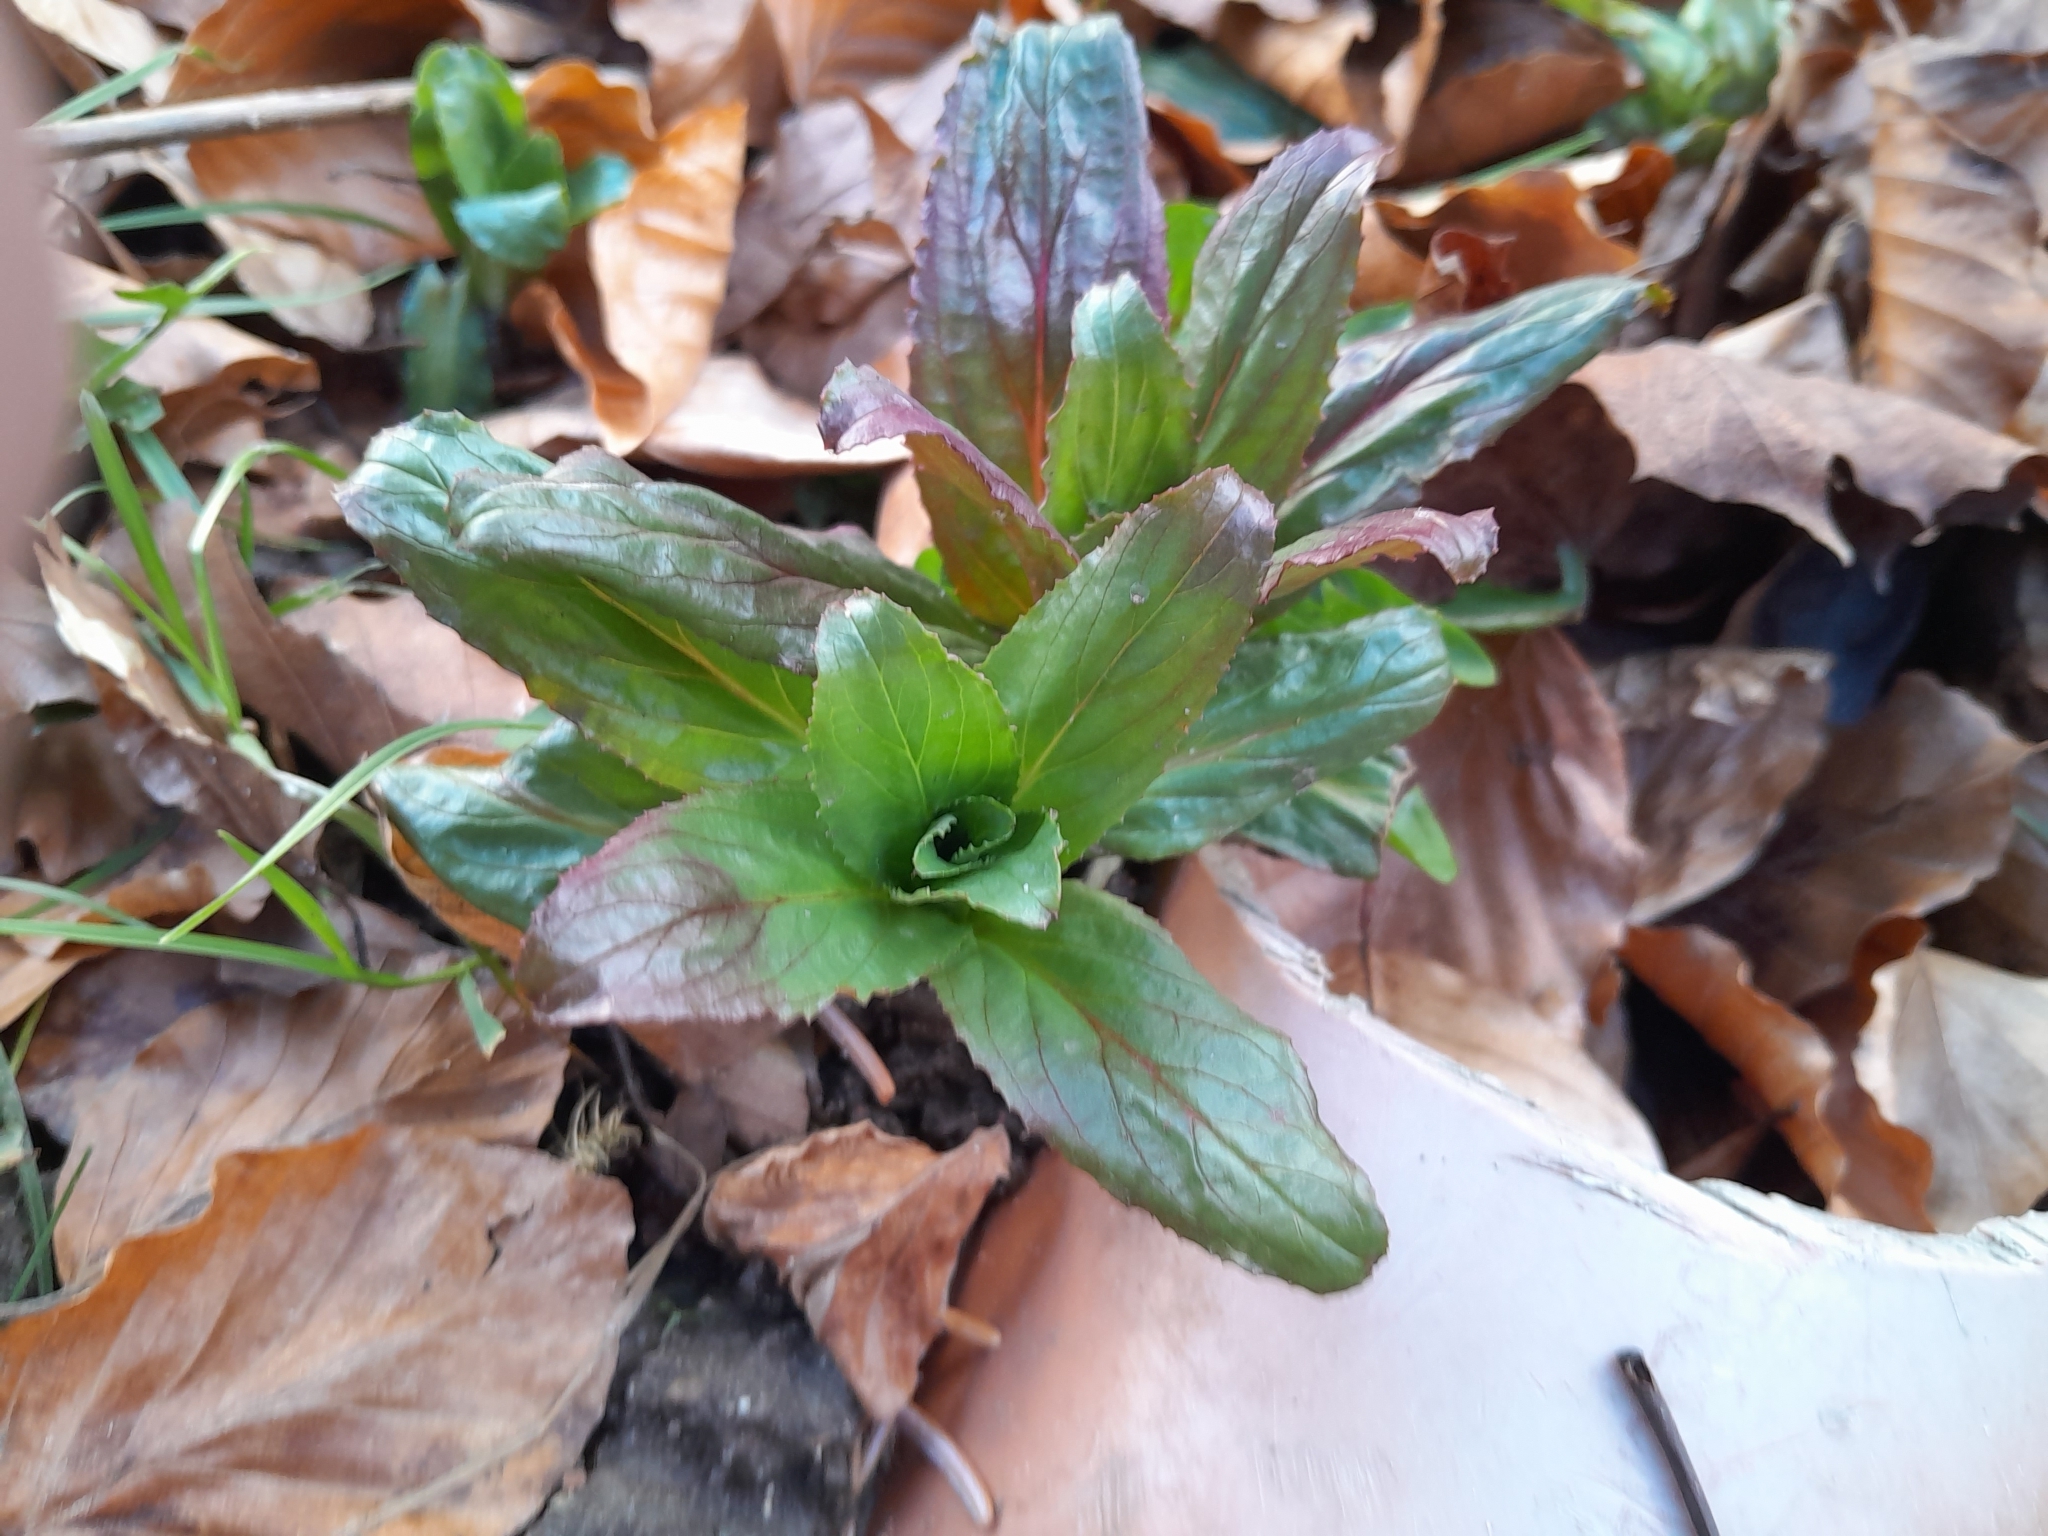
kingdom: Plantae
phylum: Tracheophyta
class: Magnoliopsida
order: Myrtales
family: Onagraceae
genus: Epilobium
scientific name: Epilobium hirsutum
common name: Great willowherb
